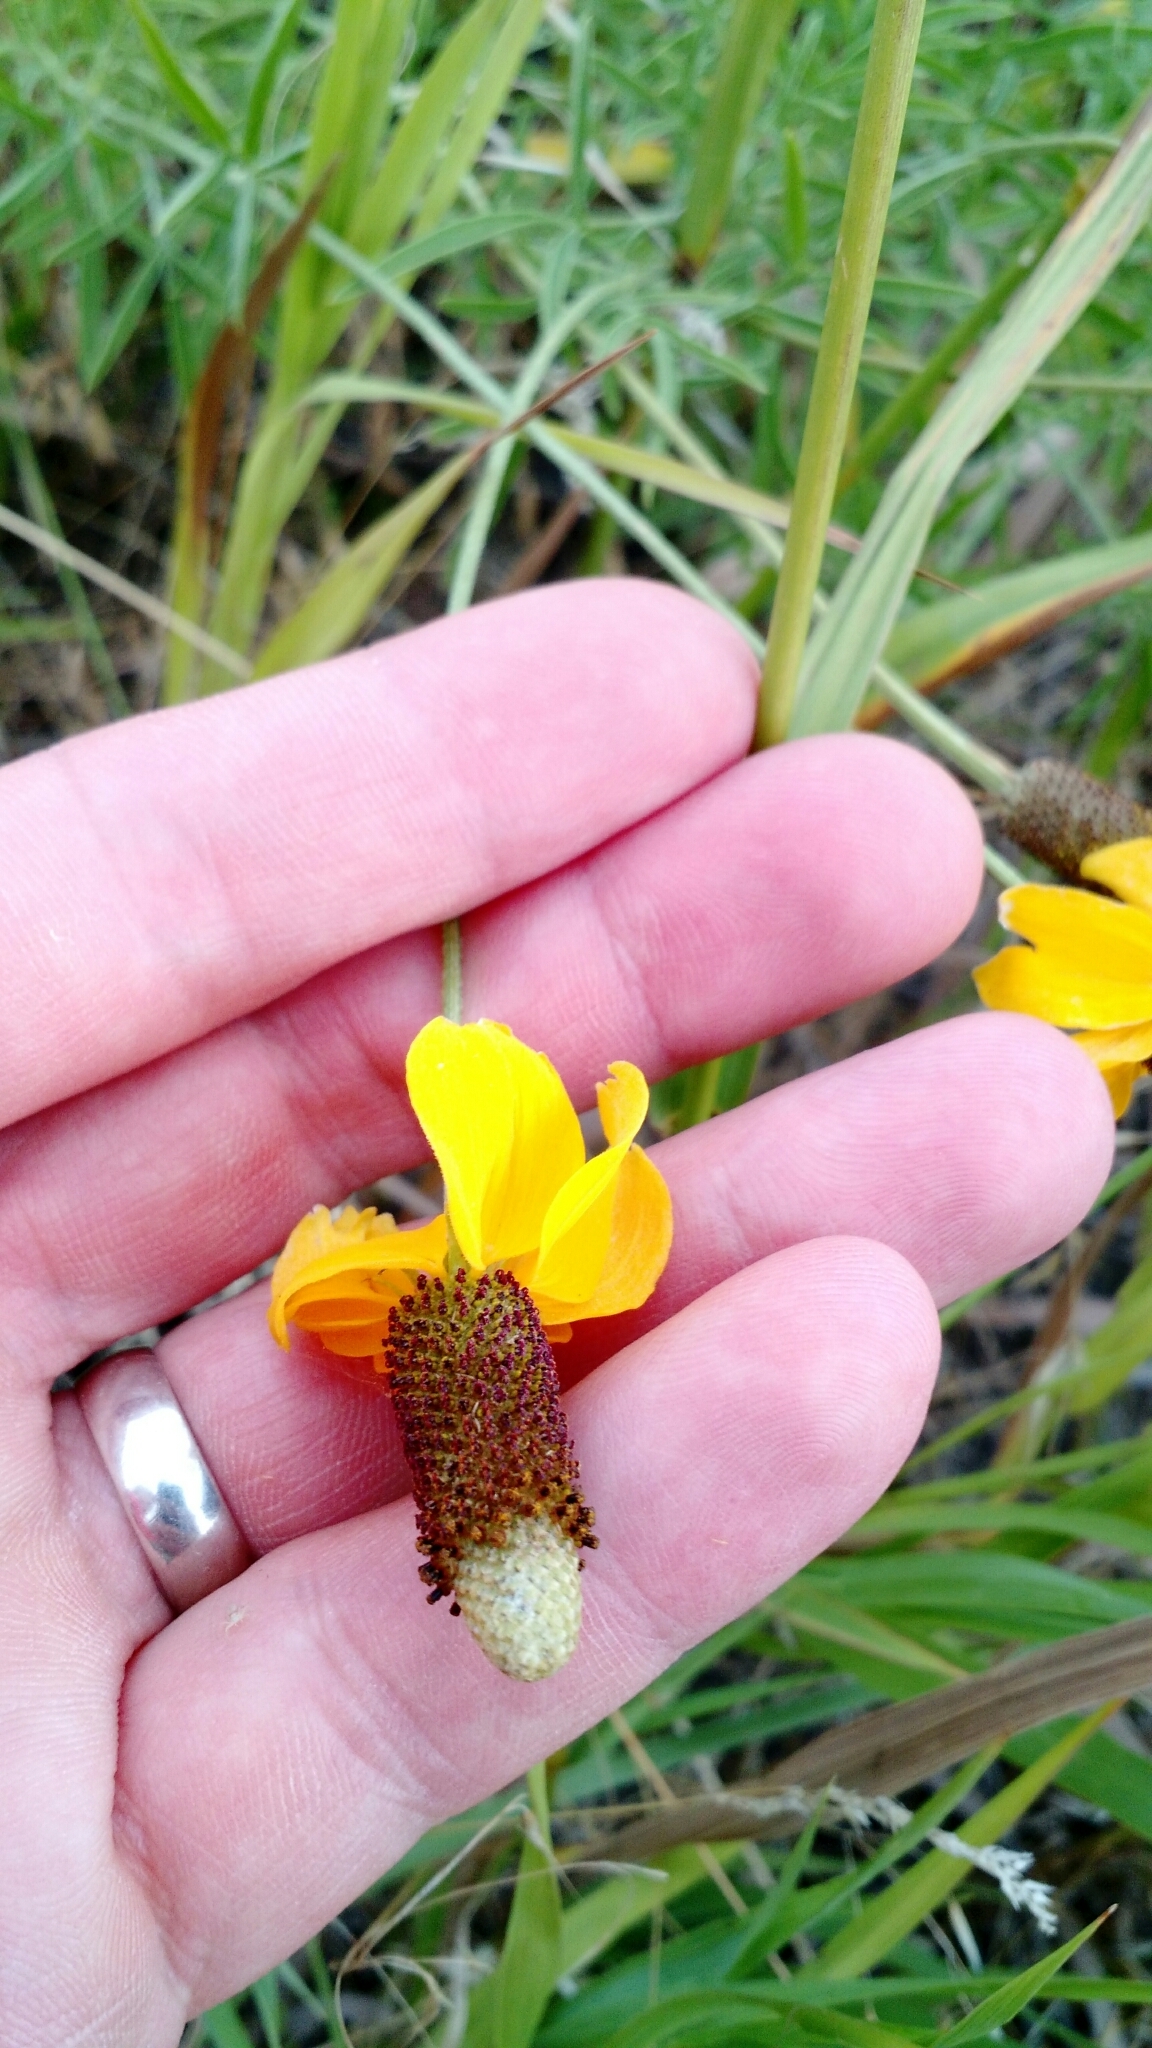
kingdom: Plantae
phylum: Tracheophyta
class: Magnoliopsida
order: Asterales
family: Asteraceae
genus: Ratibida
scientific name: Ratibida columnifera
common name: Prairie coneflower
